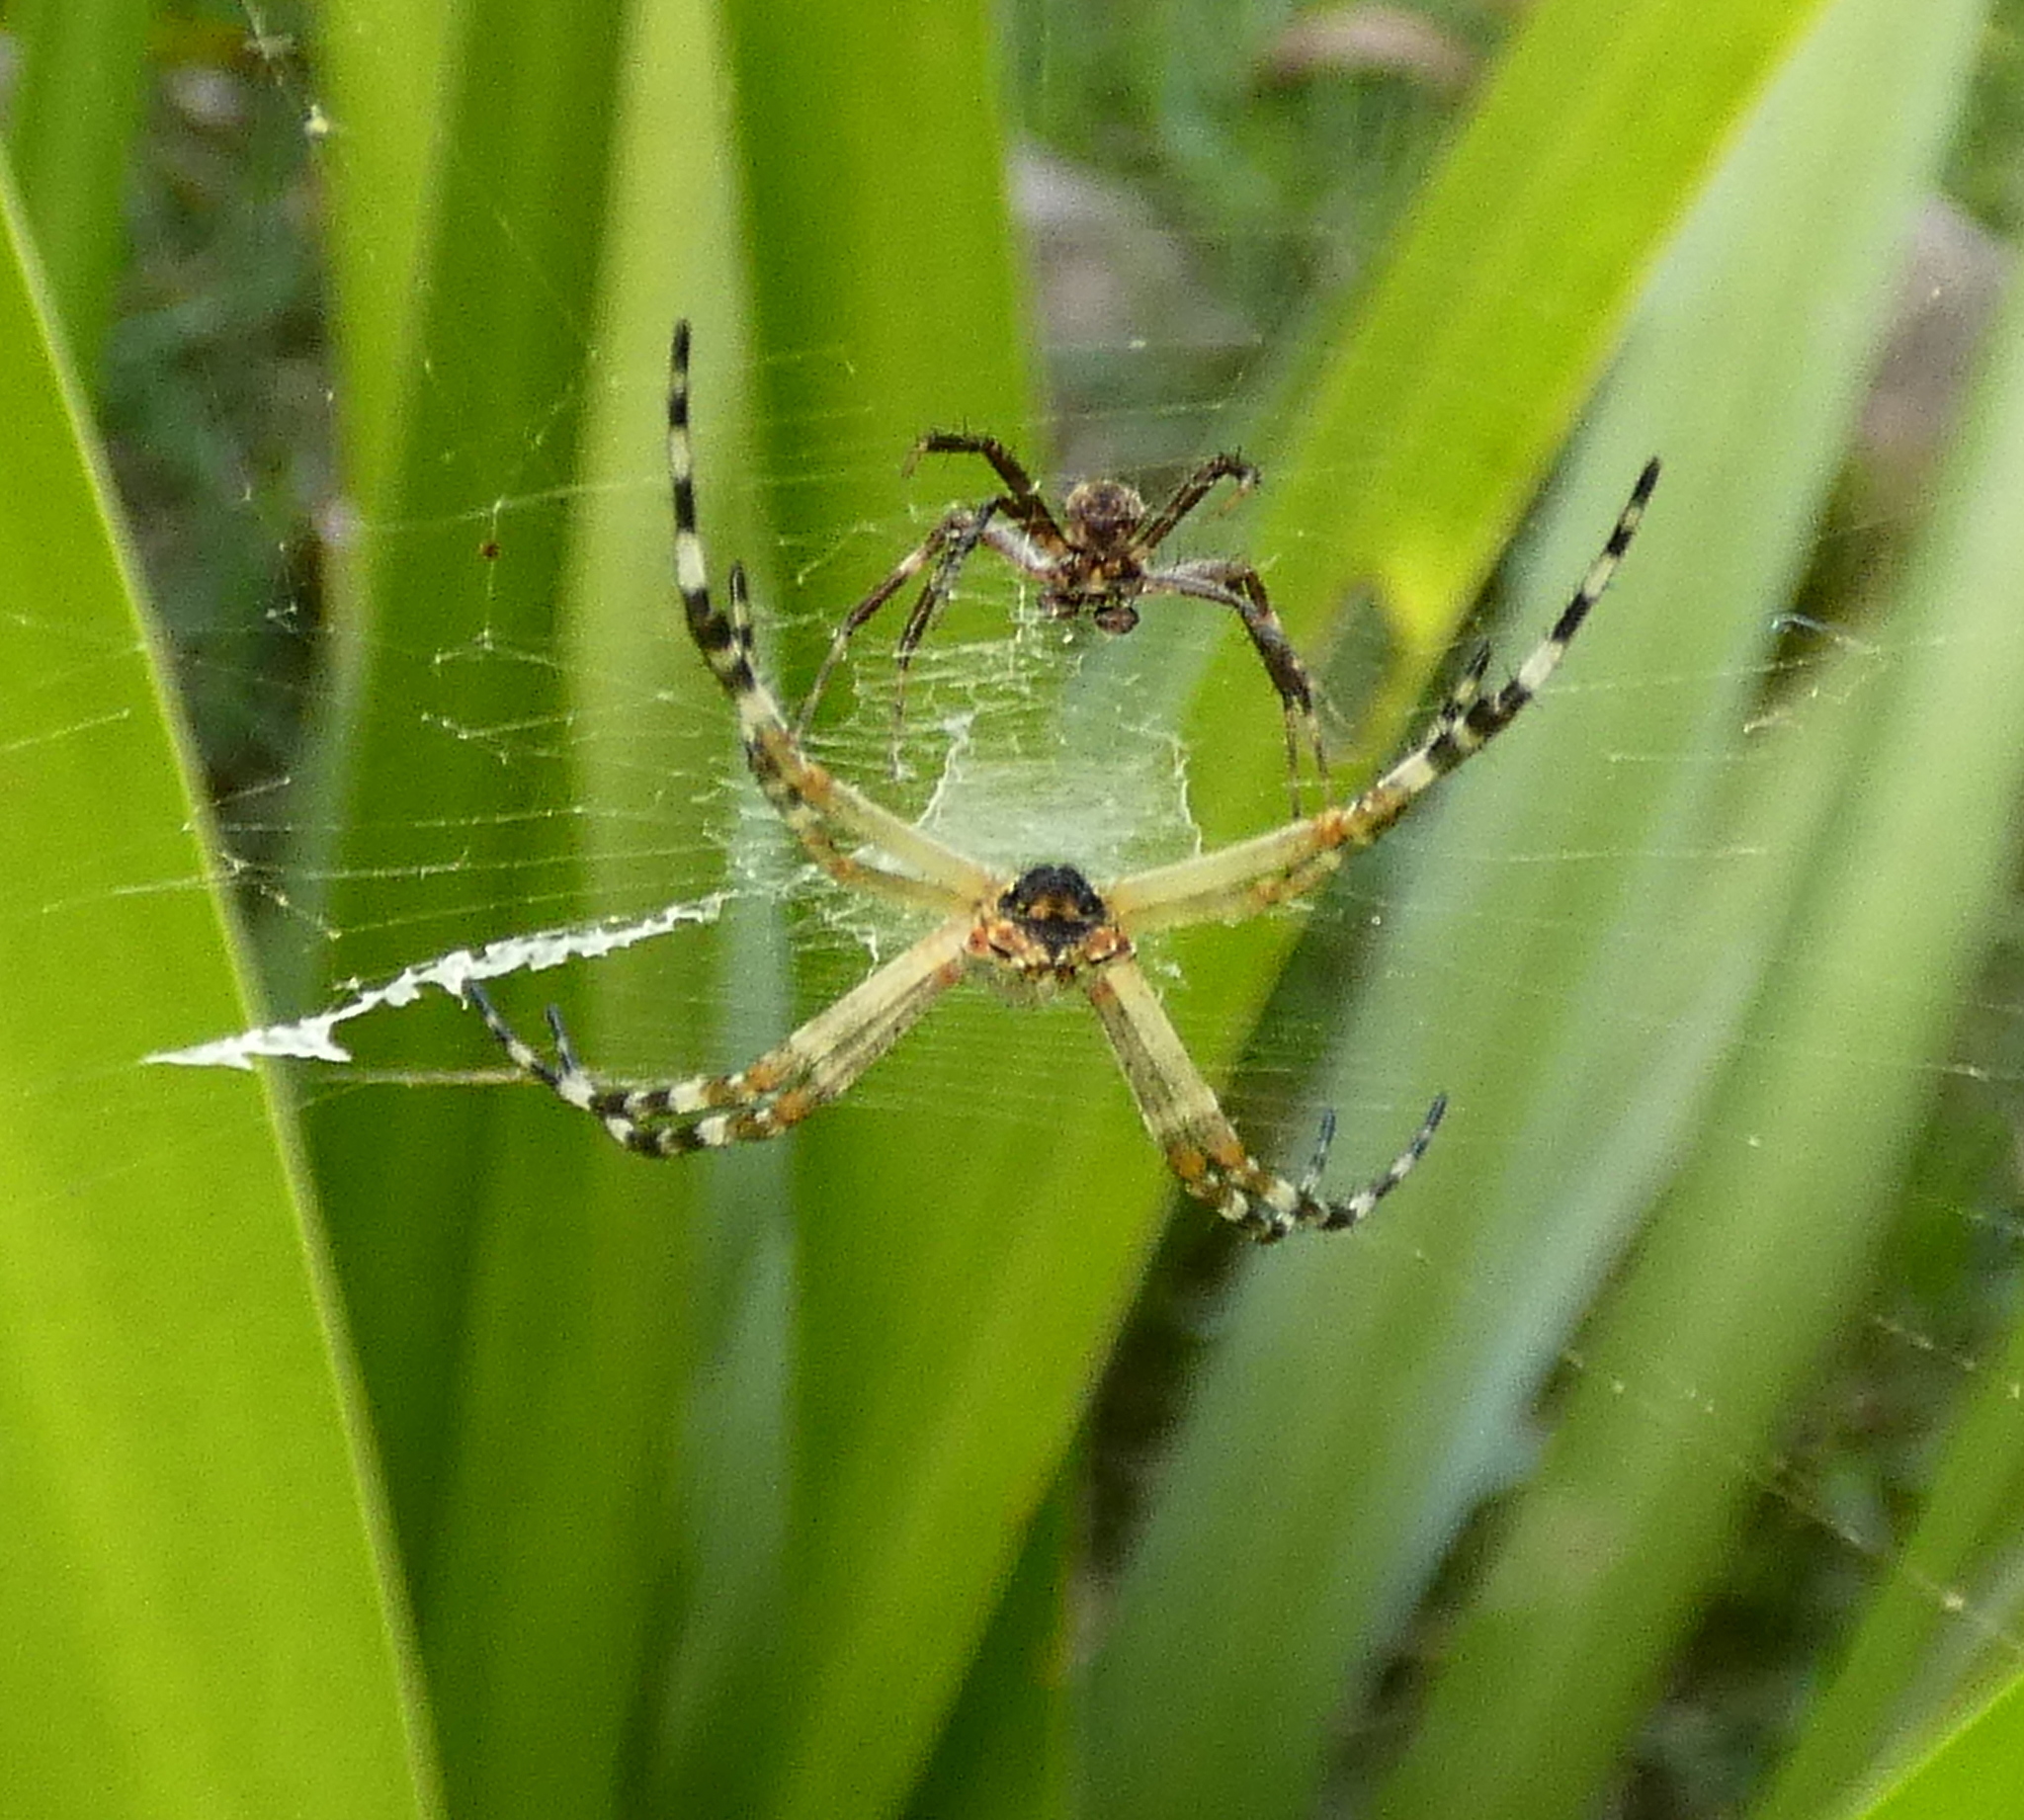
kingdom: Animalia
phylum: Arthropoda
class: Arachnida
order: Araneae
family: Araneidae
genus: Argiope
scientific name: Argiope argentata
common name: Orb weavers
